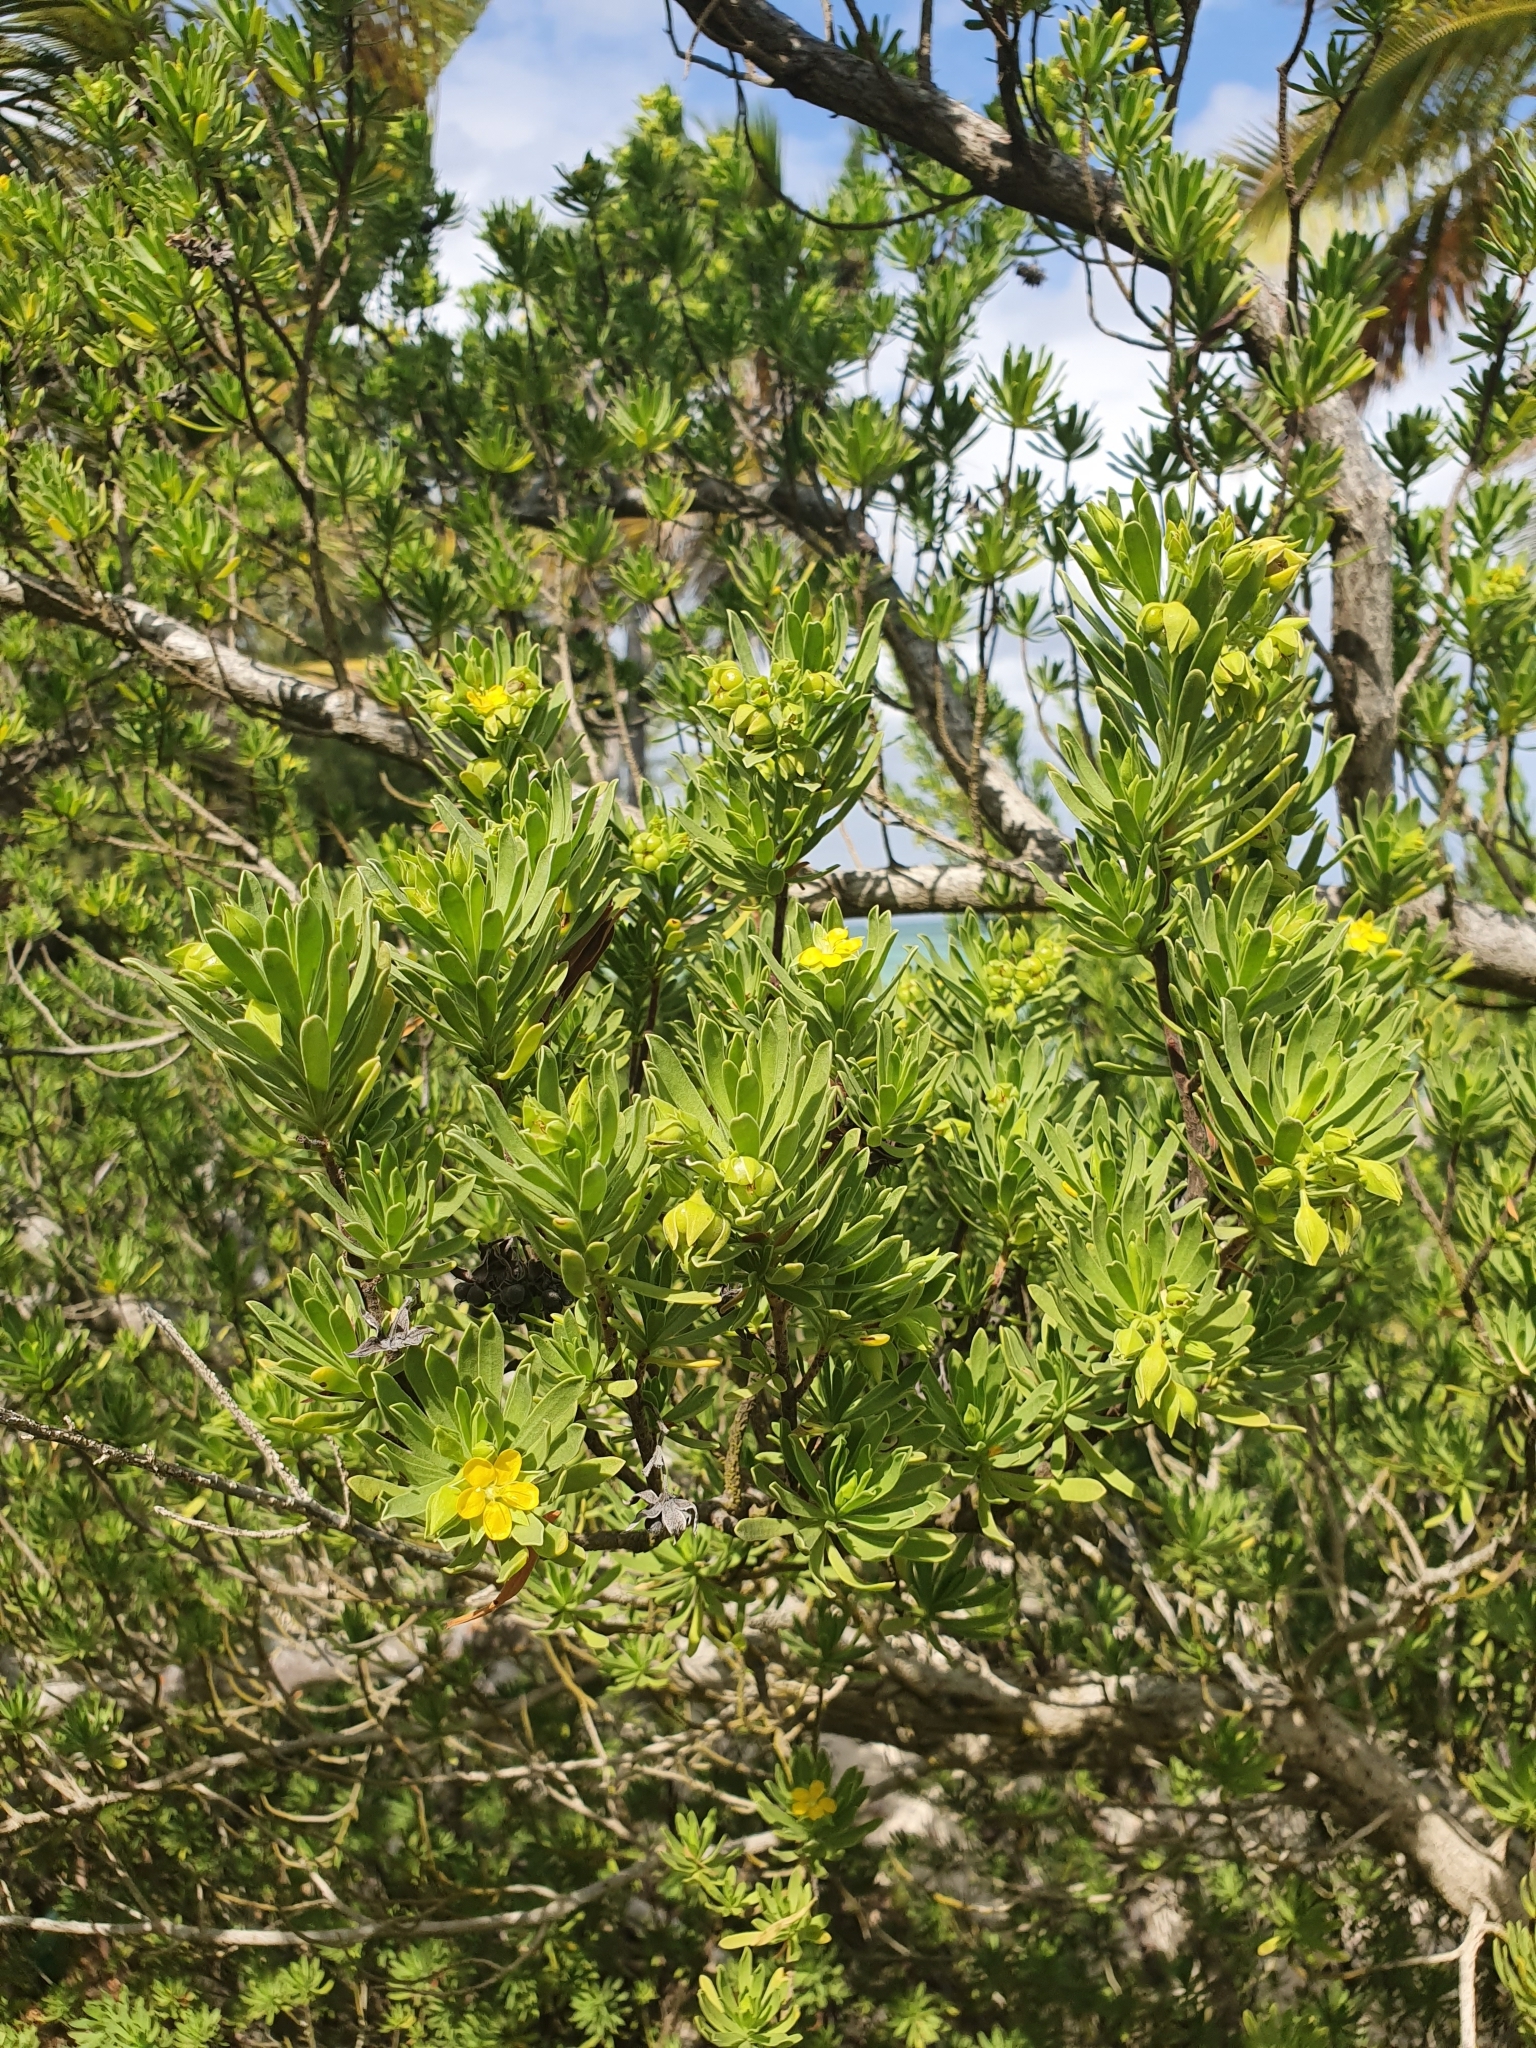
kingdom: Plantae
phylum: Tracheophyta
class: Magnoliopsida
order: Fabales
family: Surianaceae
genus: Suriana
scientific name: Suriana maritima
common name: Bay-cedar
